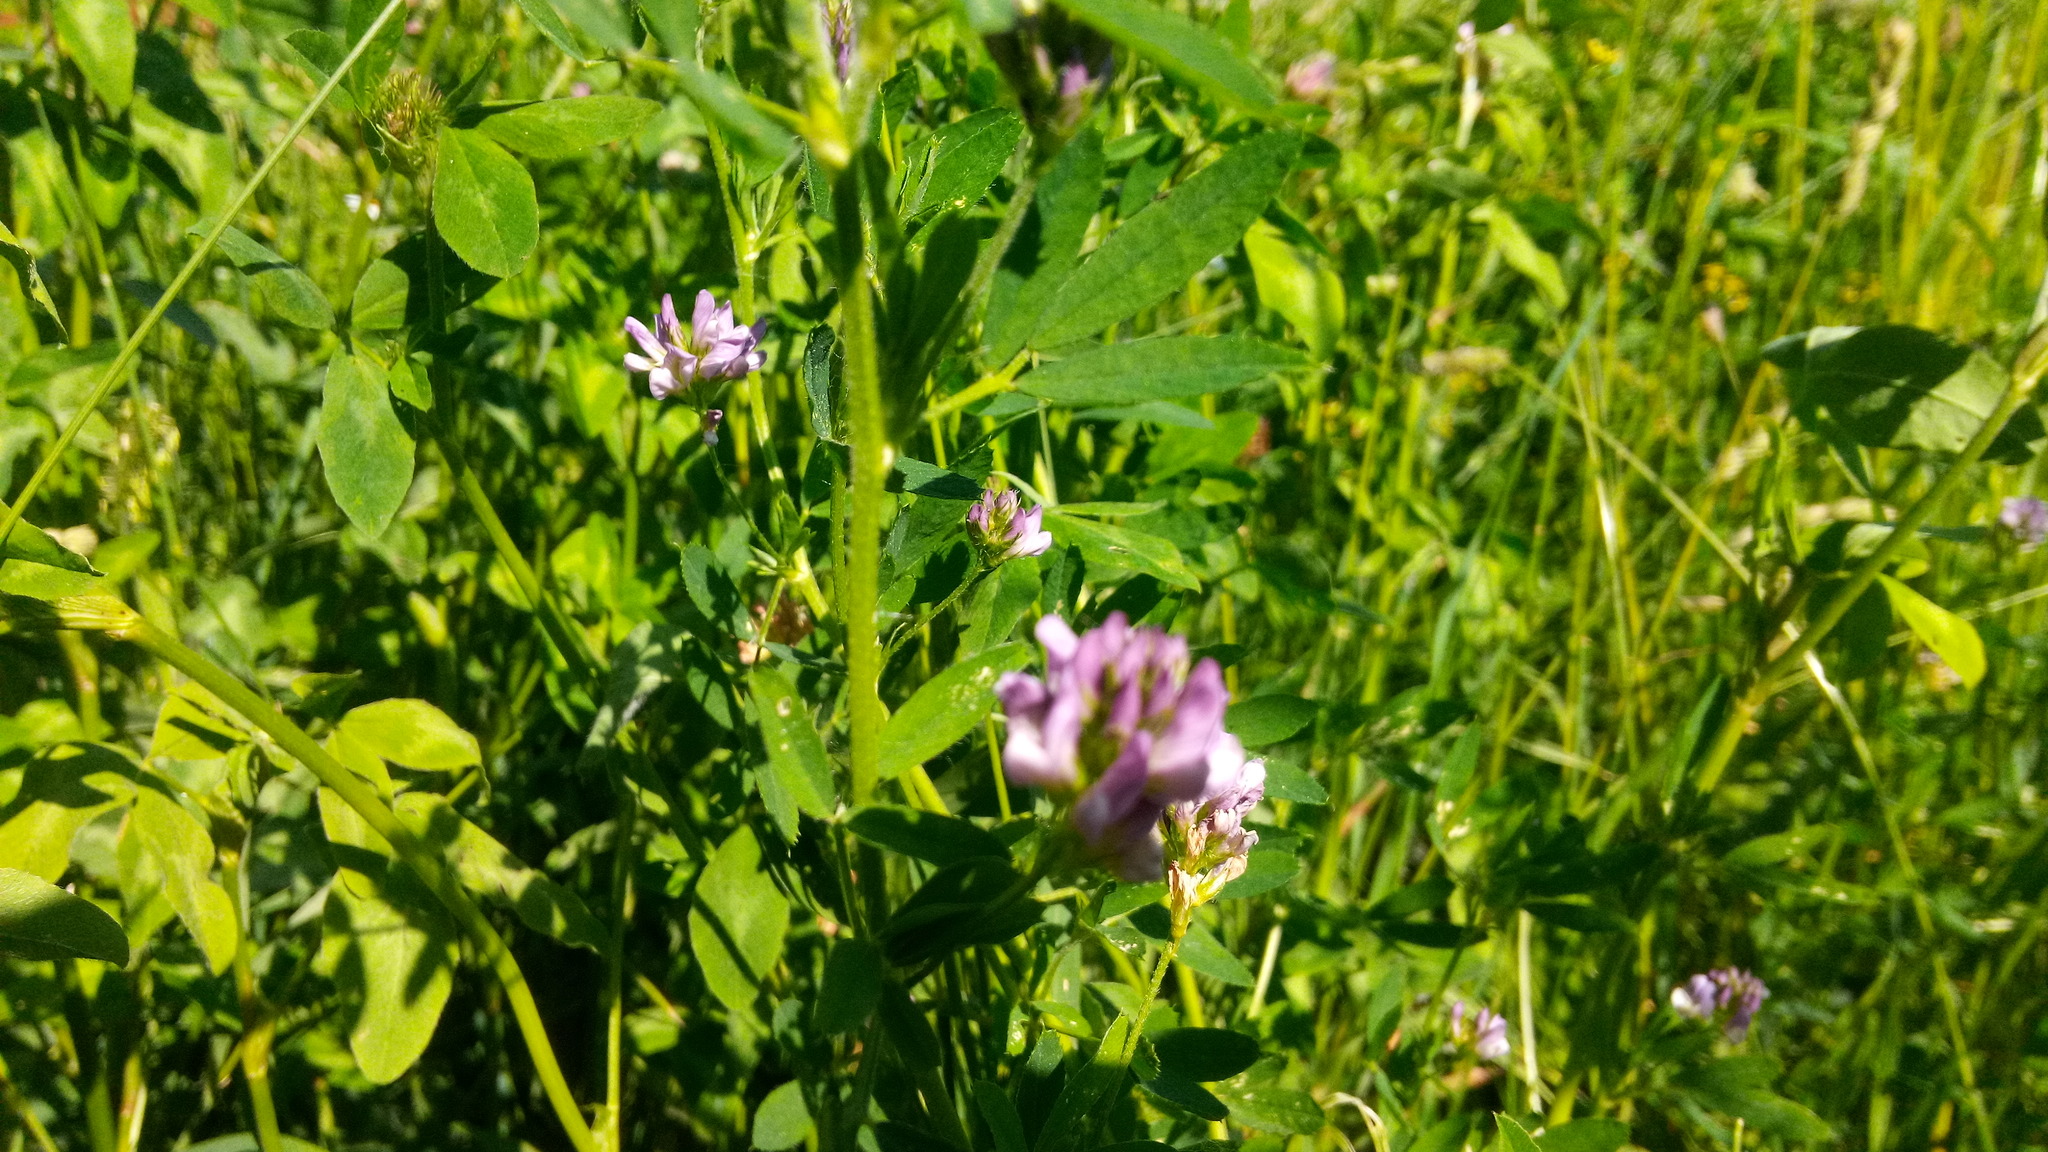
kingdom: Plantae
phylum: Tracheophyta
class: Magnoliopsida
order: Fabales
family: Fabaceae
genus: Medicago
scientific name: Medicago varia
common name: Sand lucerne
